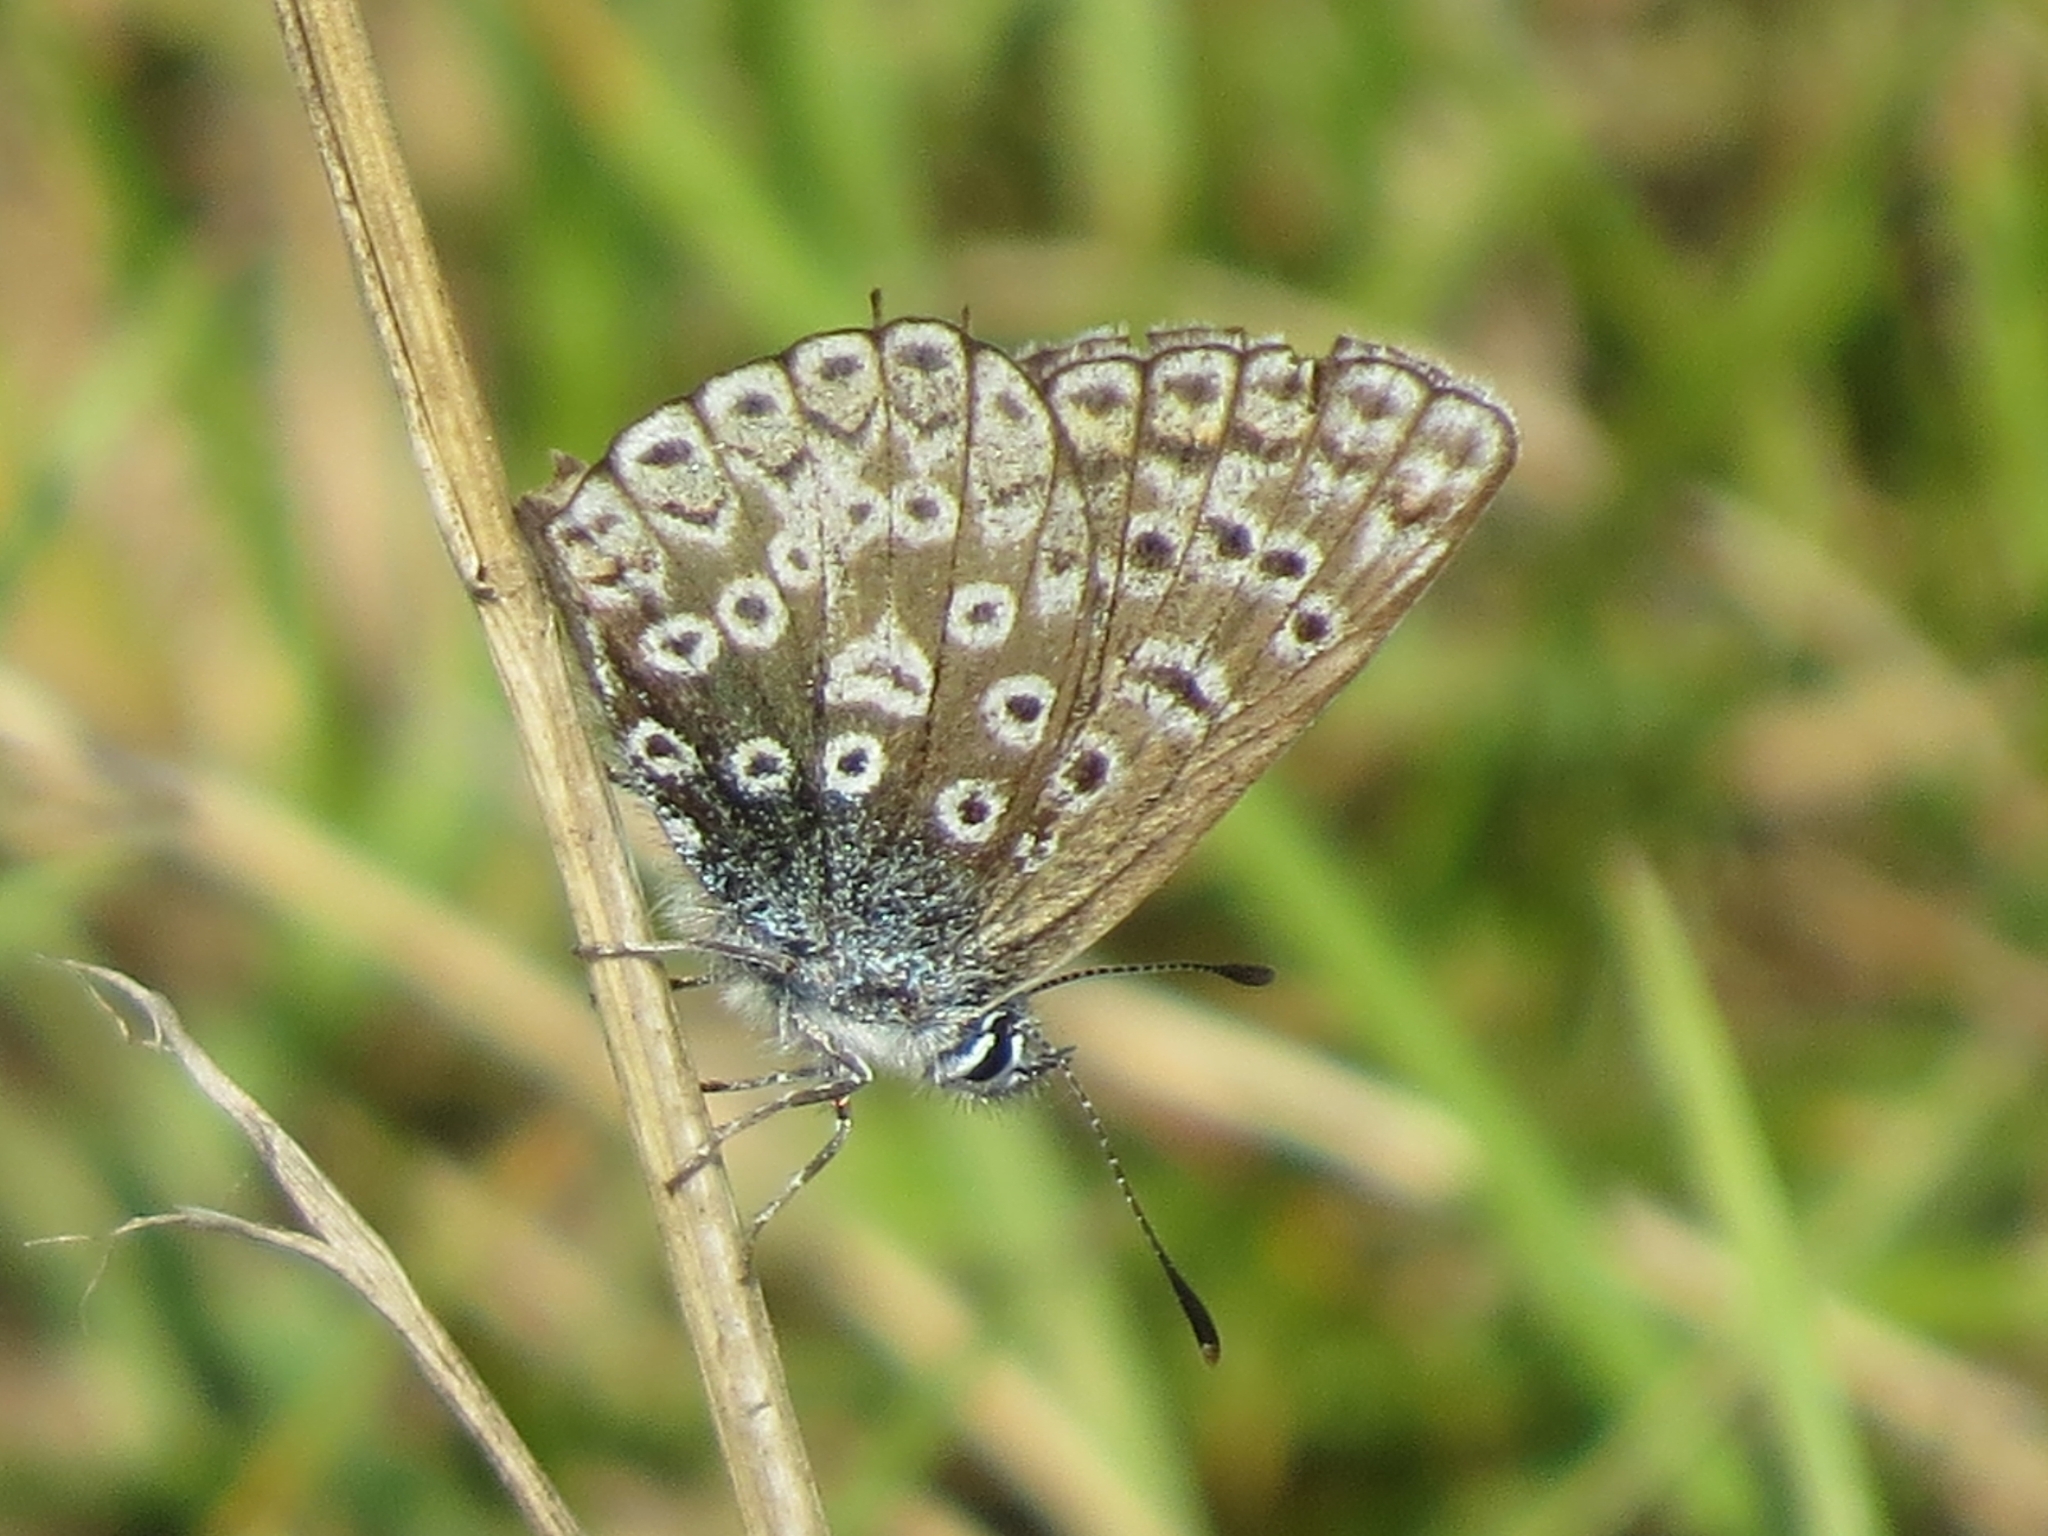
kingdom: Animalia
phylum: Arthropoda
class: Insecta
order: Lepidoptera
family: Lycaenidae
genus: Polyommatus
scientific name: Polyommatus icarus
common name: Common blue
